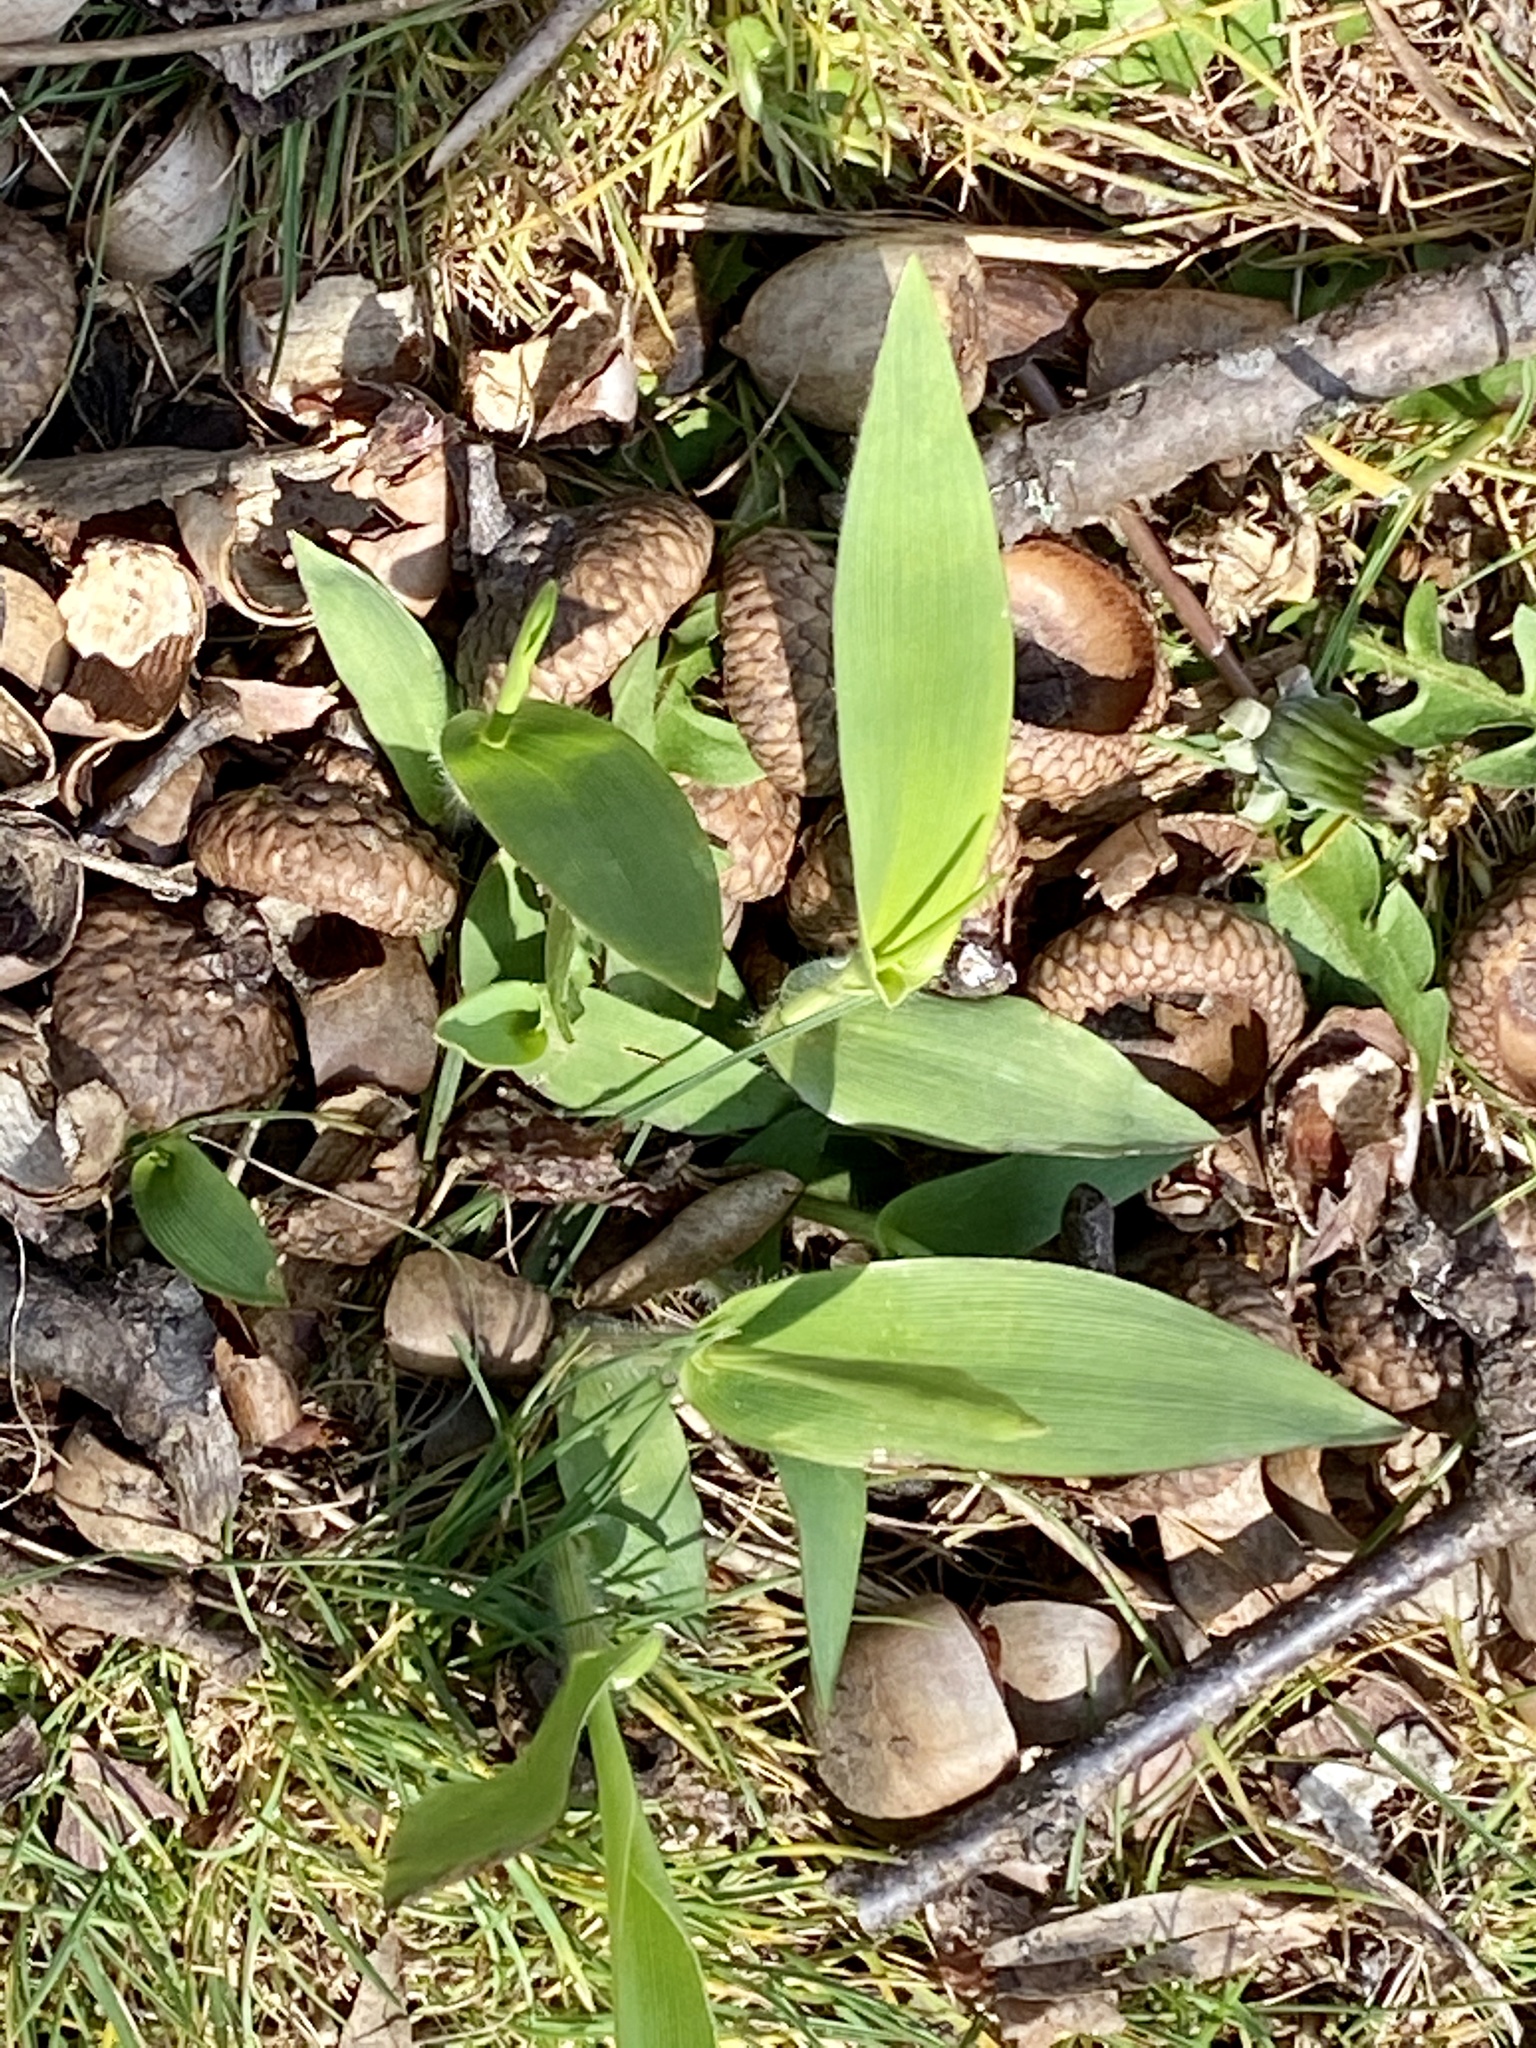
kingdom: Plantae
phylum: Tracheophyta
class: Liliopsida
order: Poales
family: Poaceae
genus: Dichanthelium
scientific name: Dichanthelium clandestinum
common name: Deer-tongue grass
